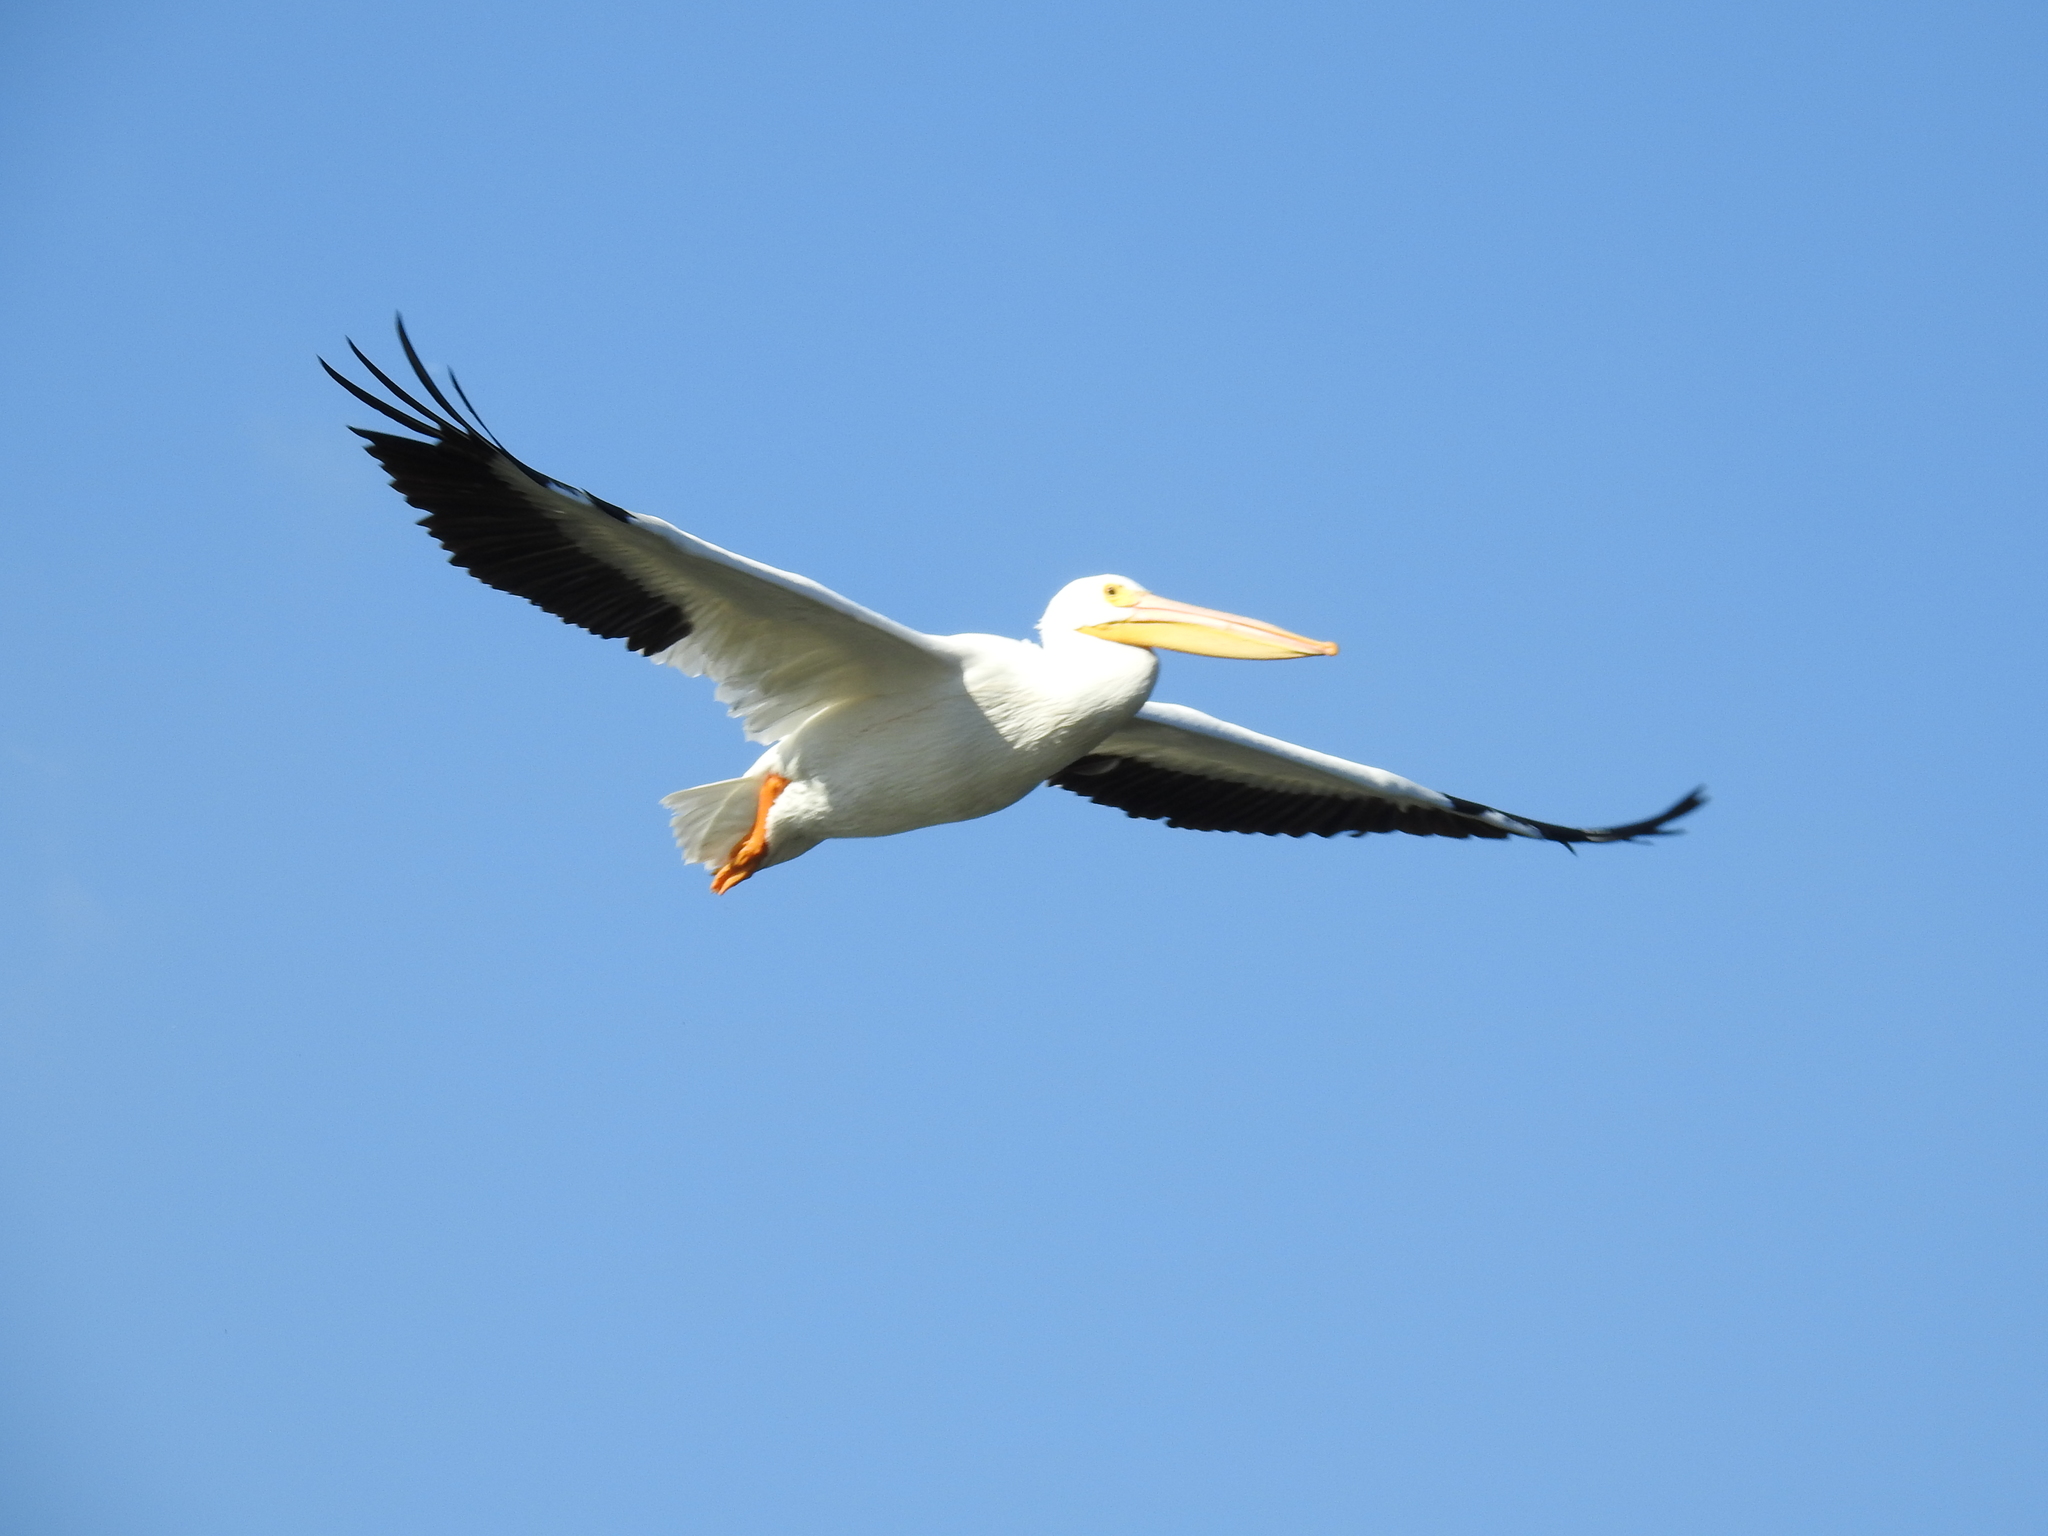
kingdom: Animalia
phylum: Chordata
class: Aves
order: Pelecaniformes
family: Pelecanidae
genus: Pelecanus
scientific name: Pelecanus erythrorhynchos
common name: American white pelican
